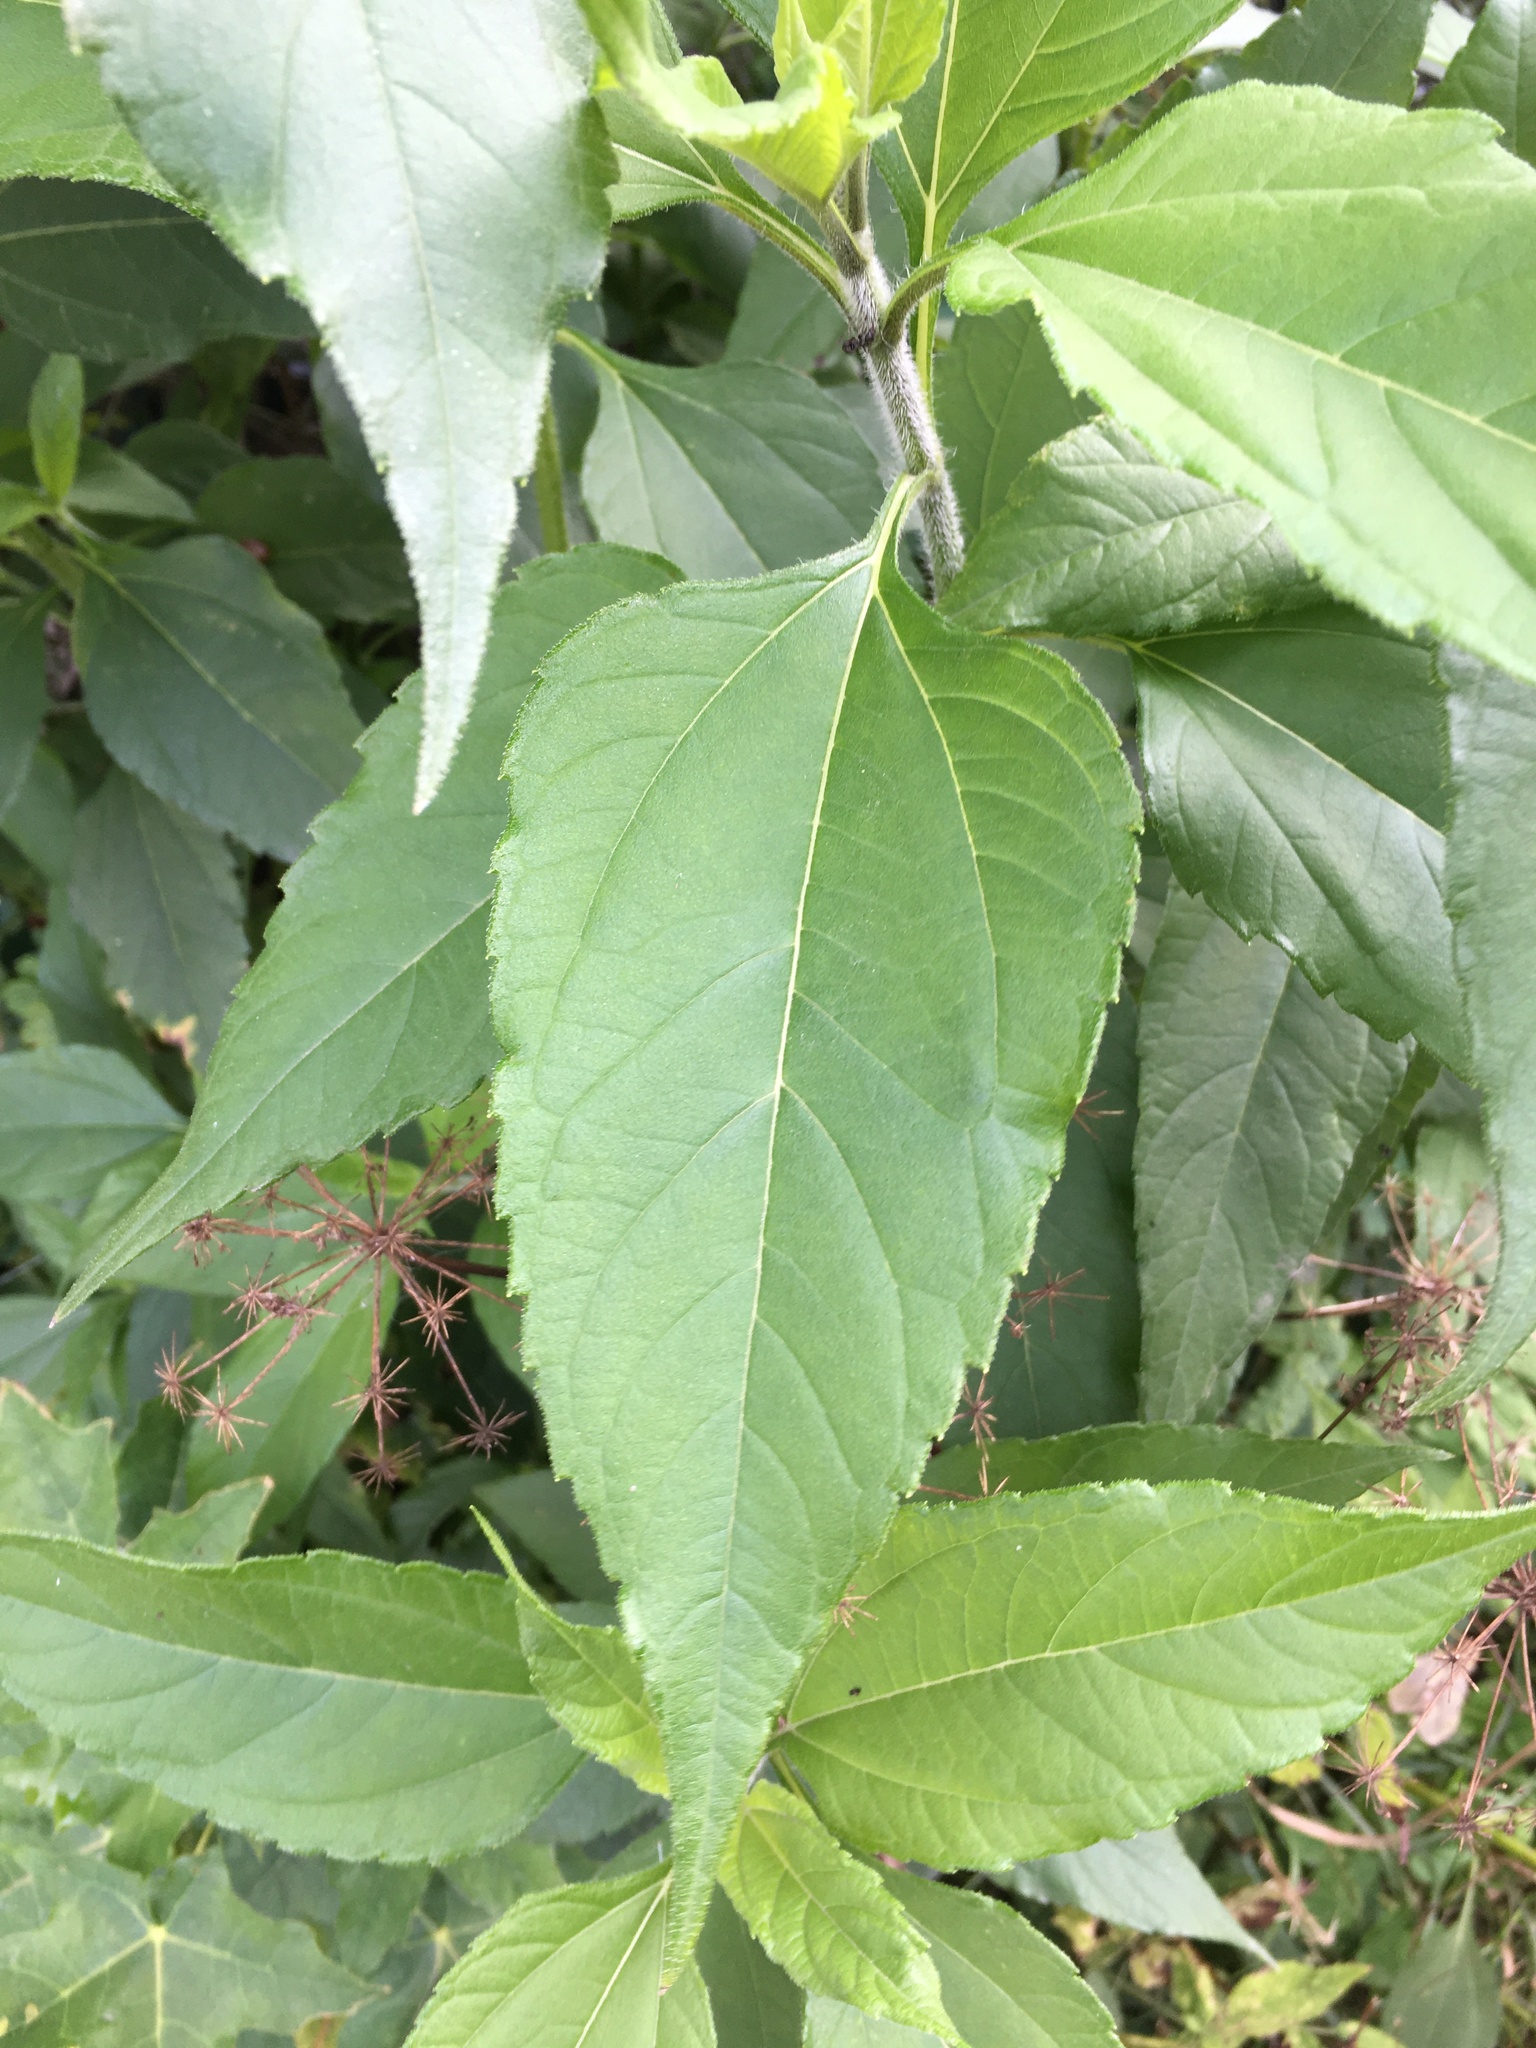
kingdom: Plantae
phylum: Tracheophyta
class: Magnoliopsida
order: Asterales
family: Asteraceae
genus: Helianthus
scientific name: Helianthus tuberosus
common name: Jerusalem artichoke
